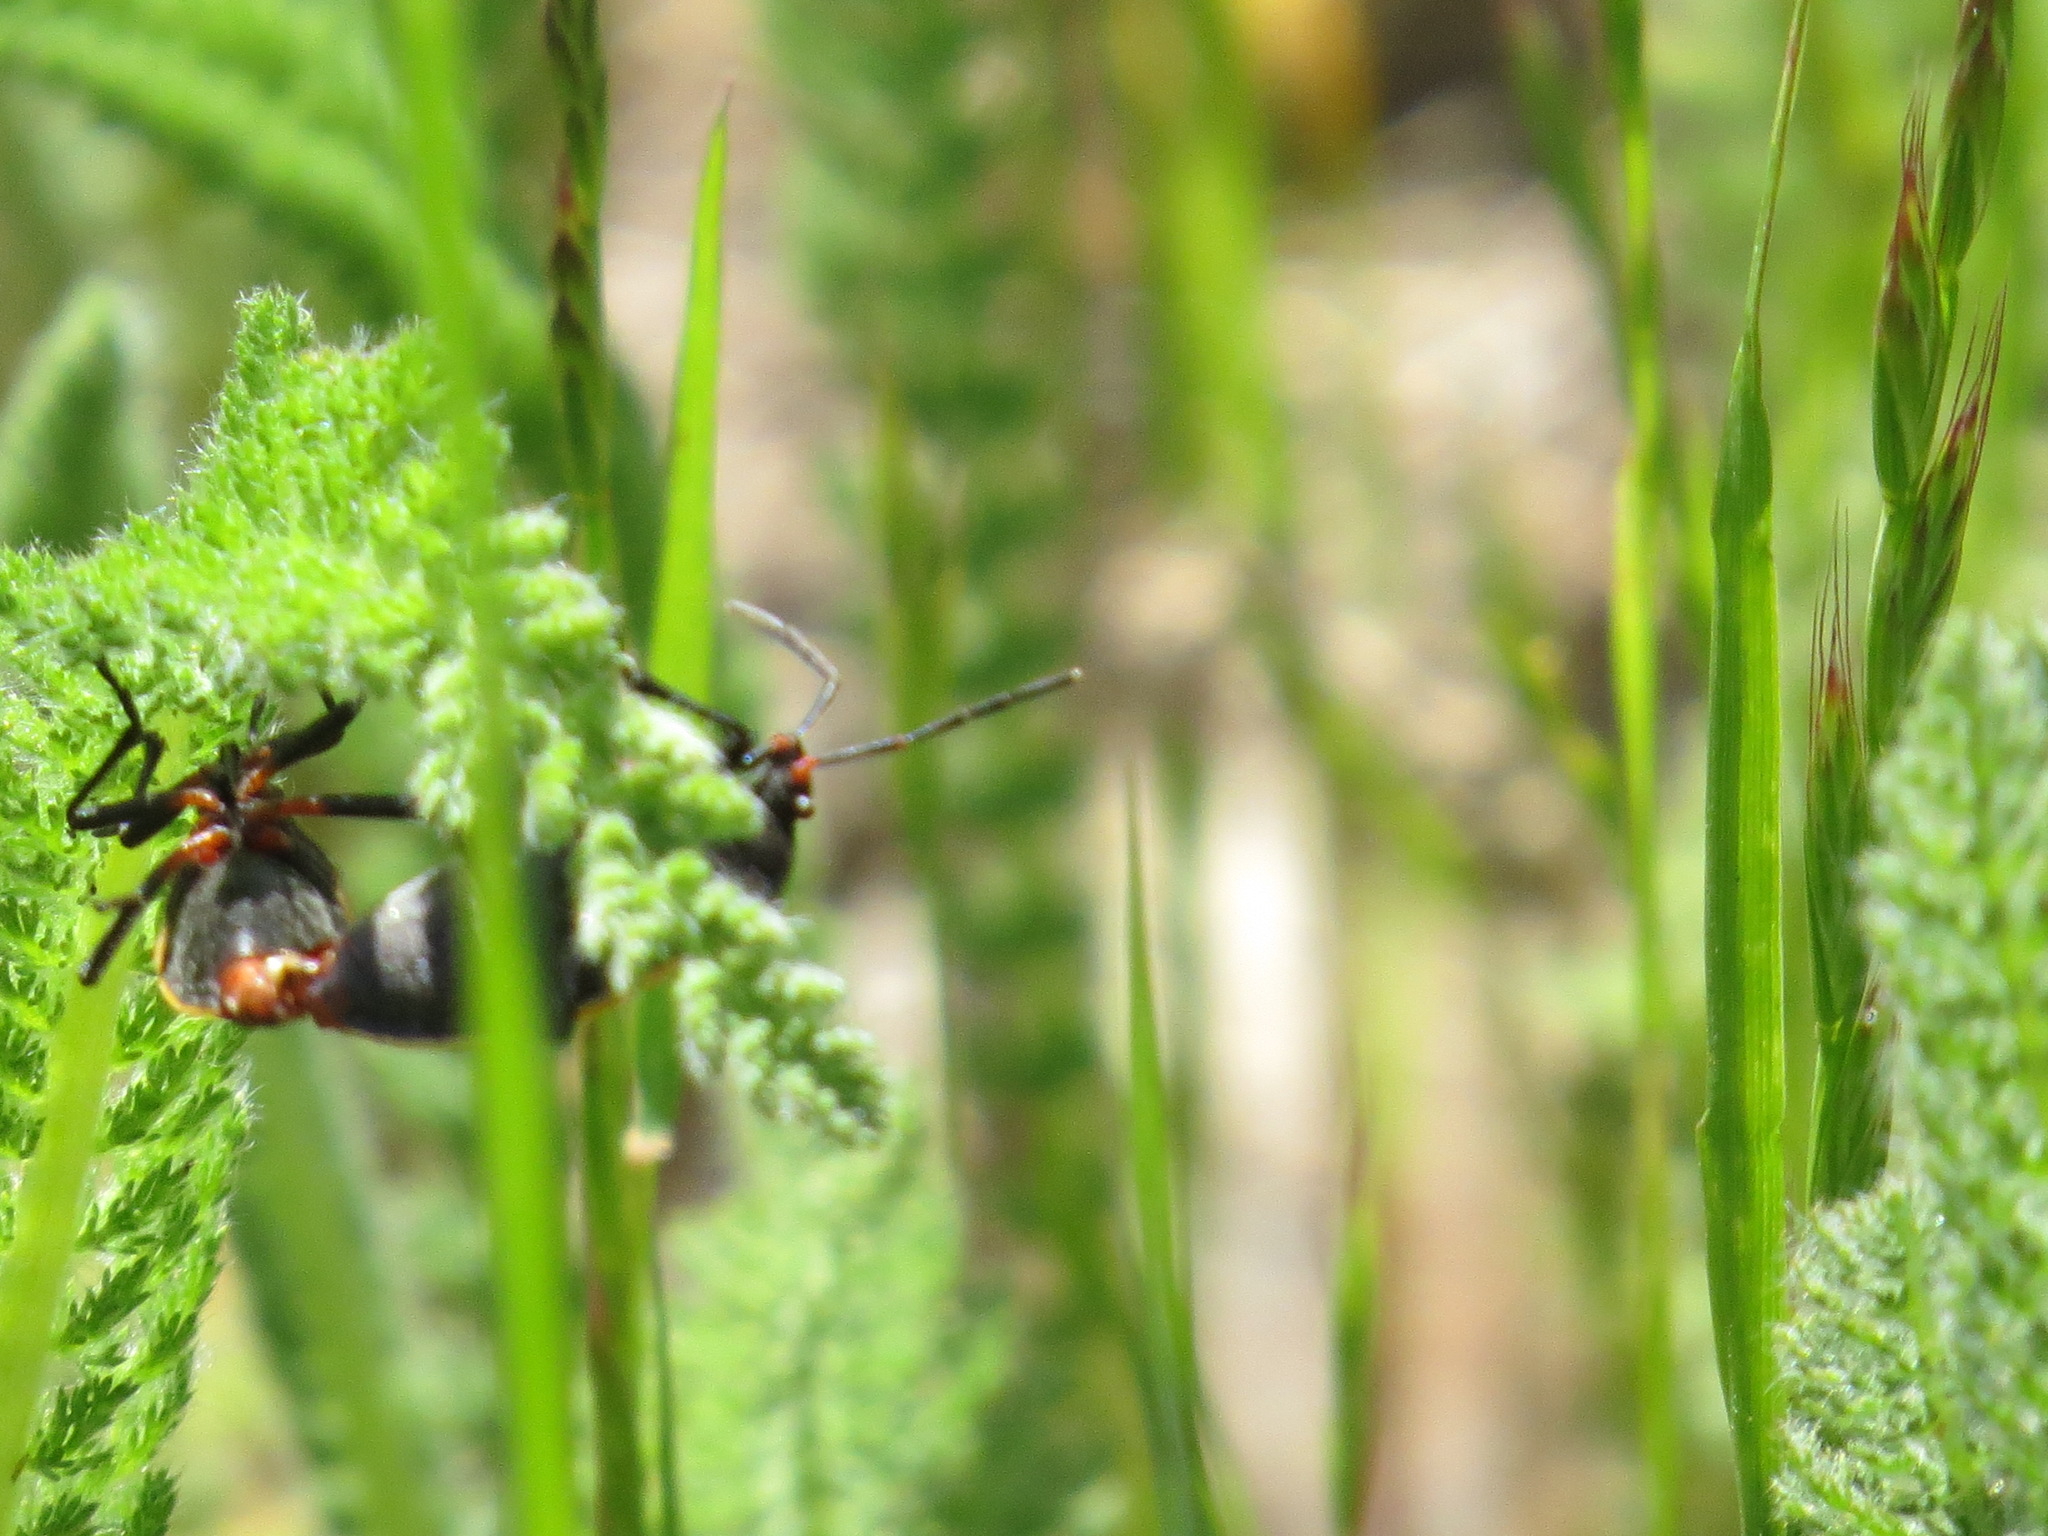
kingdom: Animalia
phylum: Arthropoda
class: Insecta
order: Hemiptera
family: Largidae
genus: Largus
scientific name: Largus californicus
